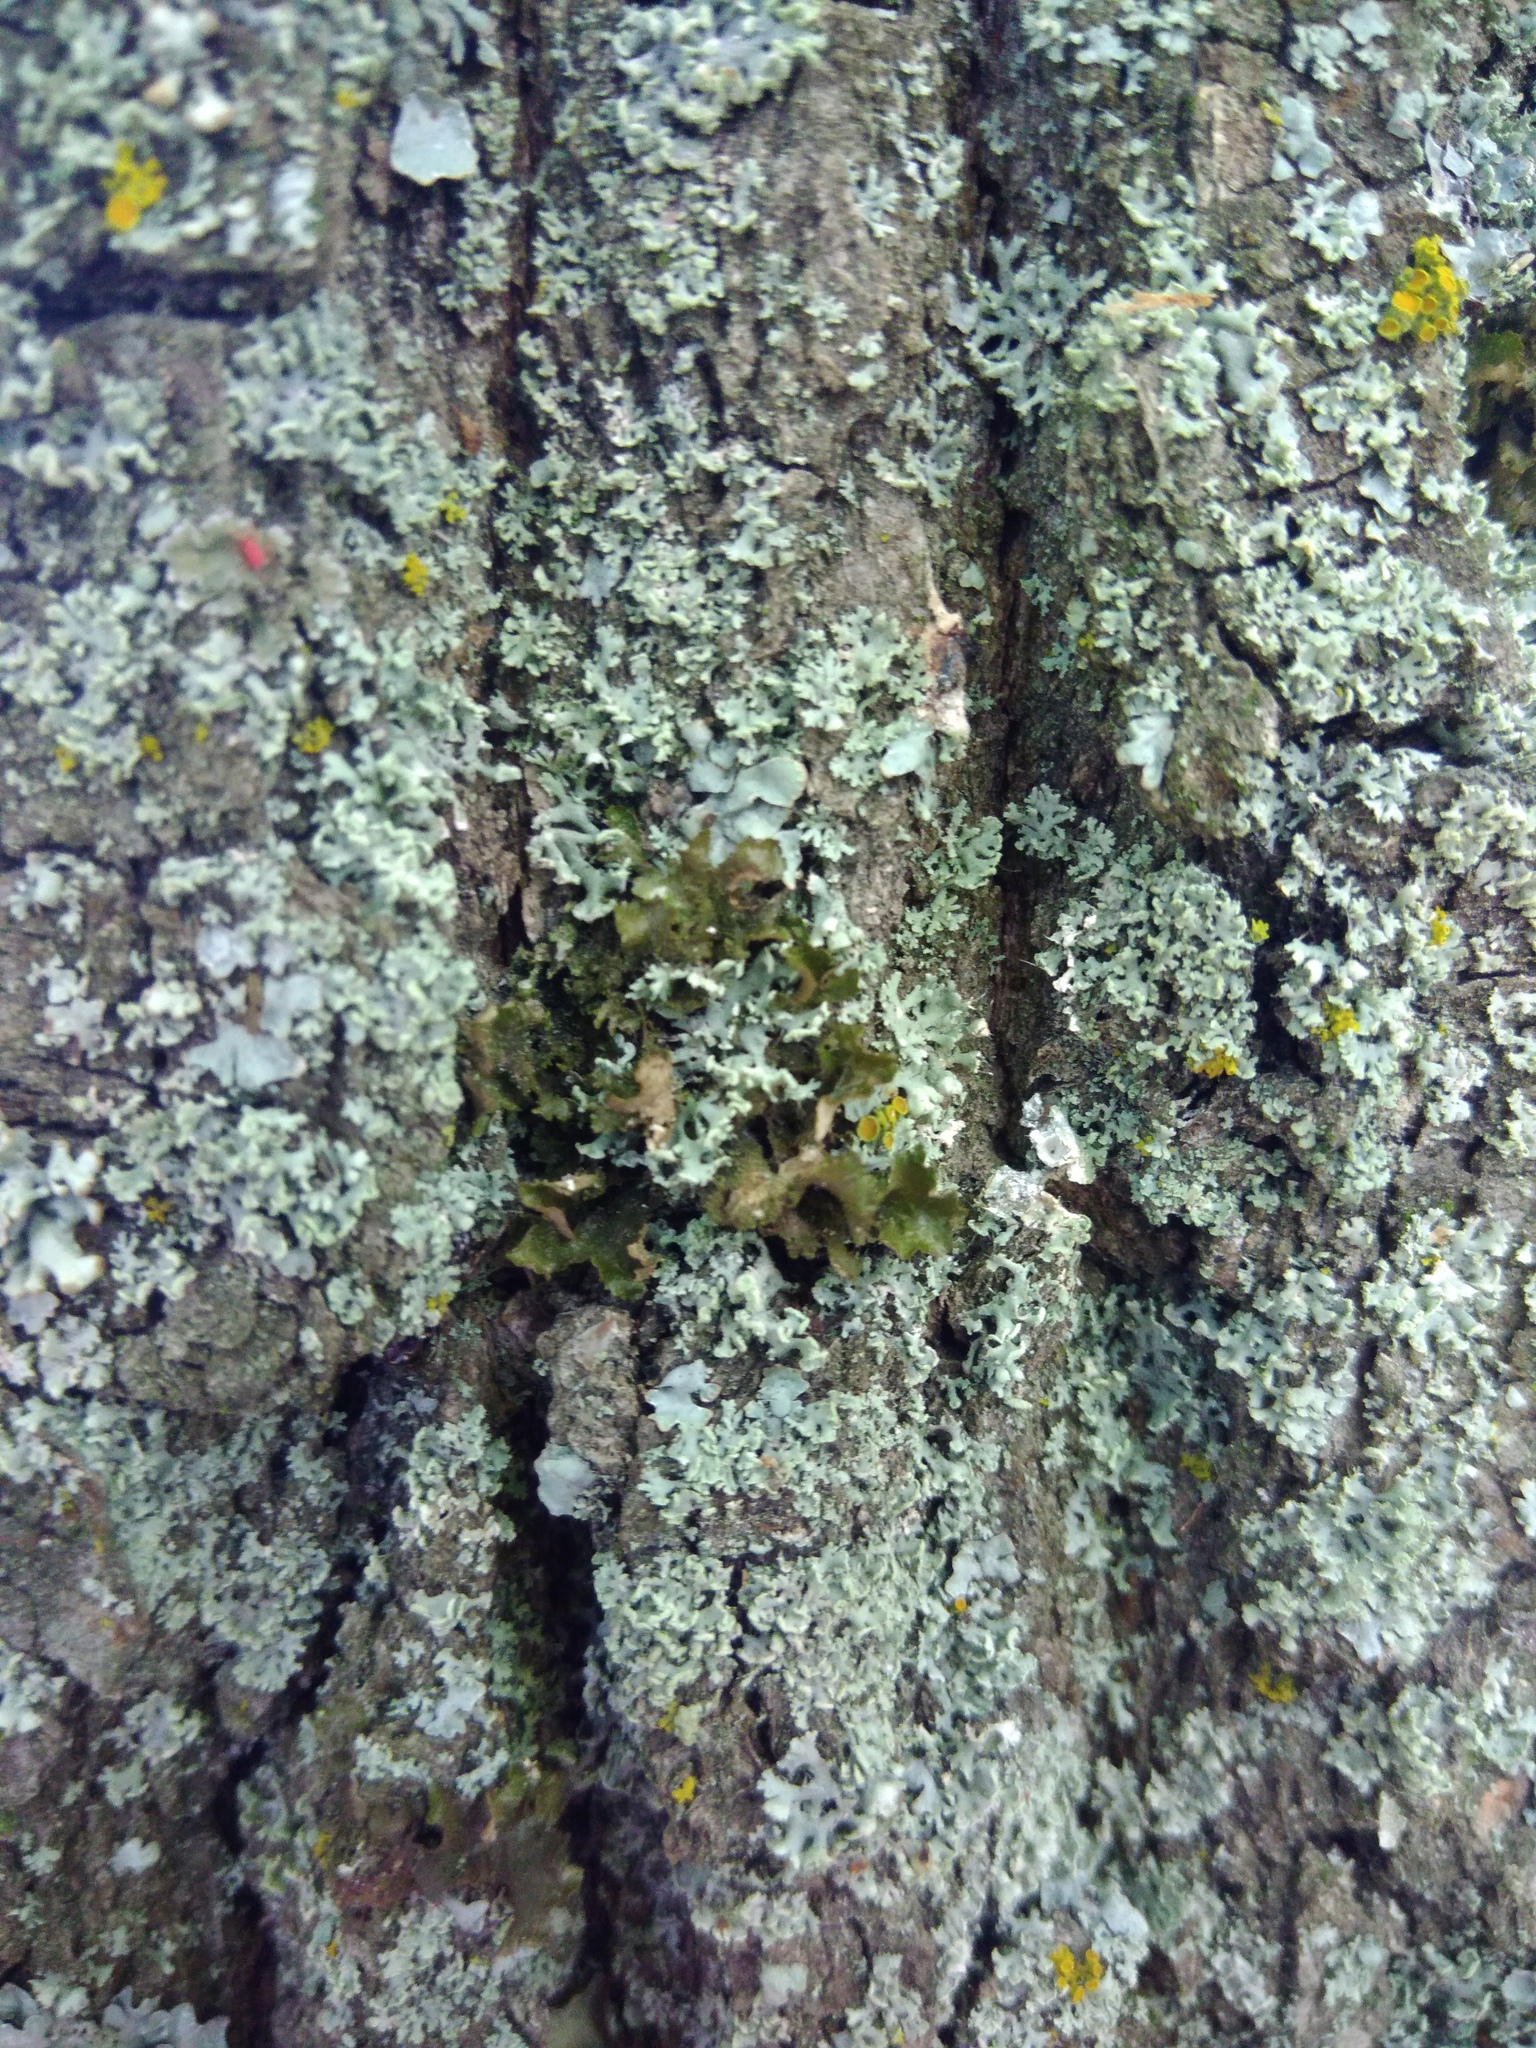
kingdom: Fungi
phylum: Ascomycota
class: Lecanoromycetes
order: Lecanorales
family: Parmeliaceae
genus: Melanohalea
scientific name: Melanohalea exasperatula
